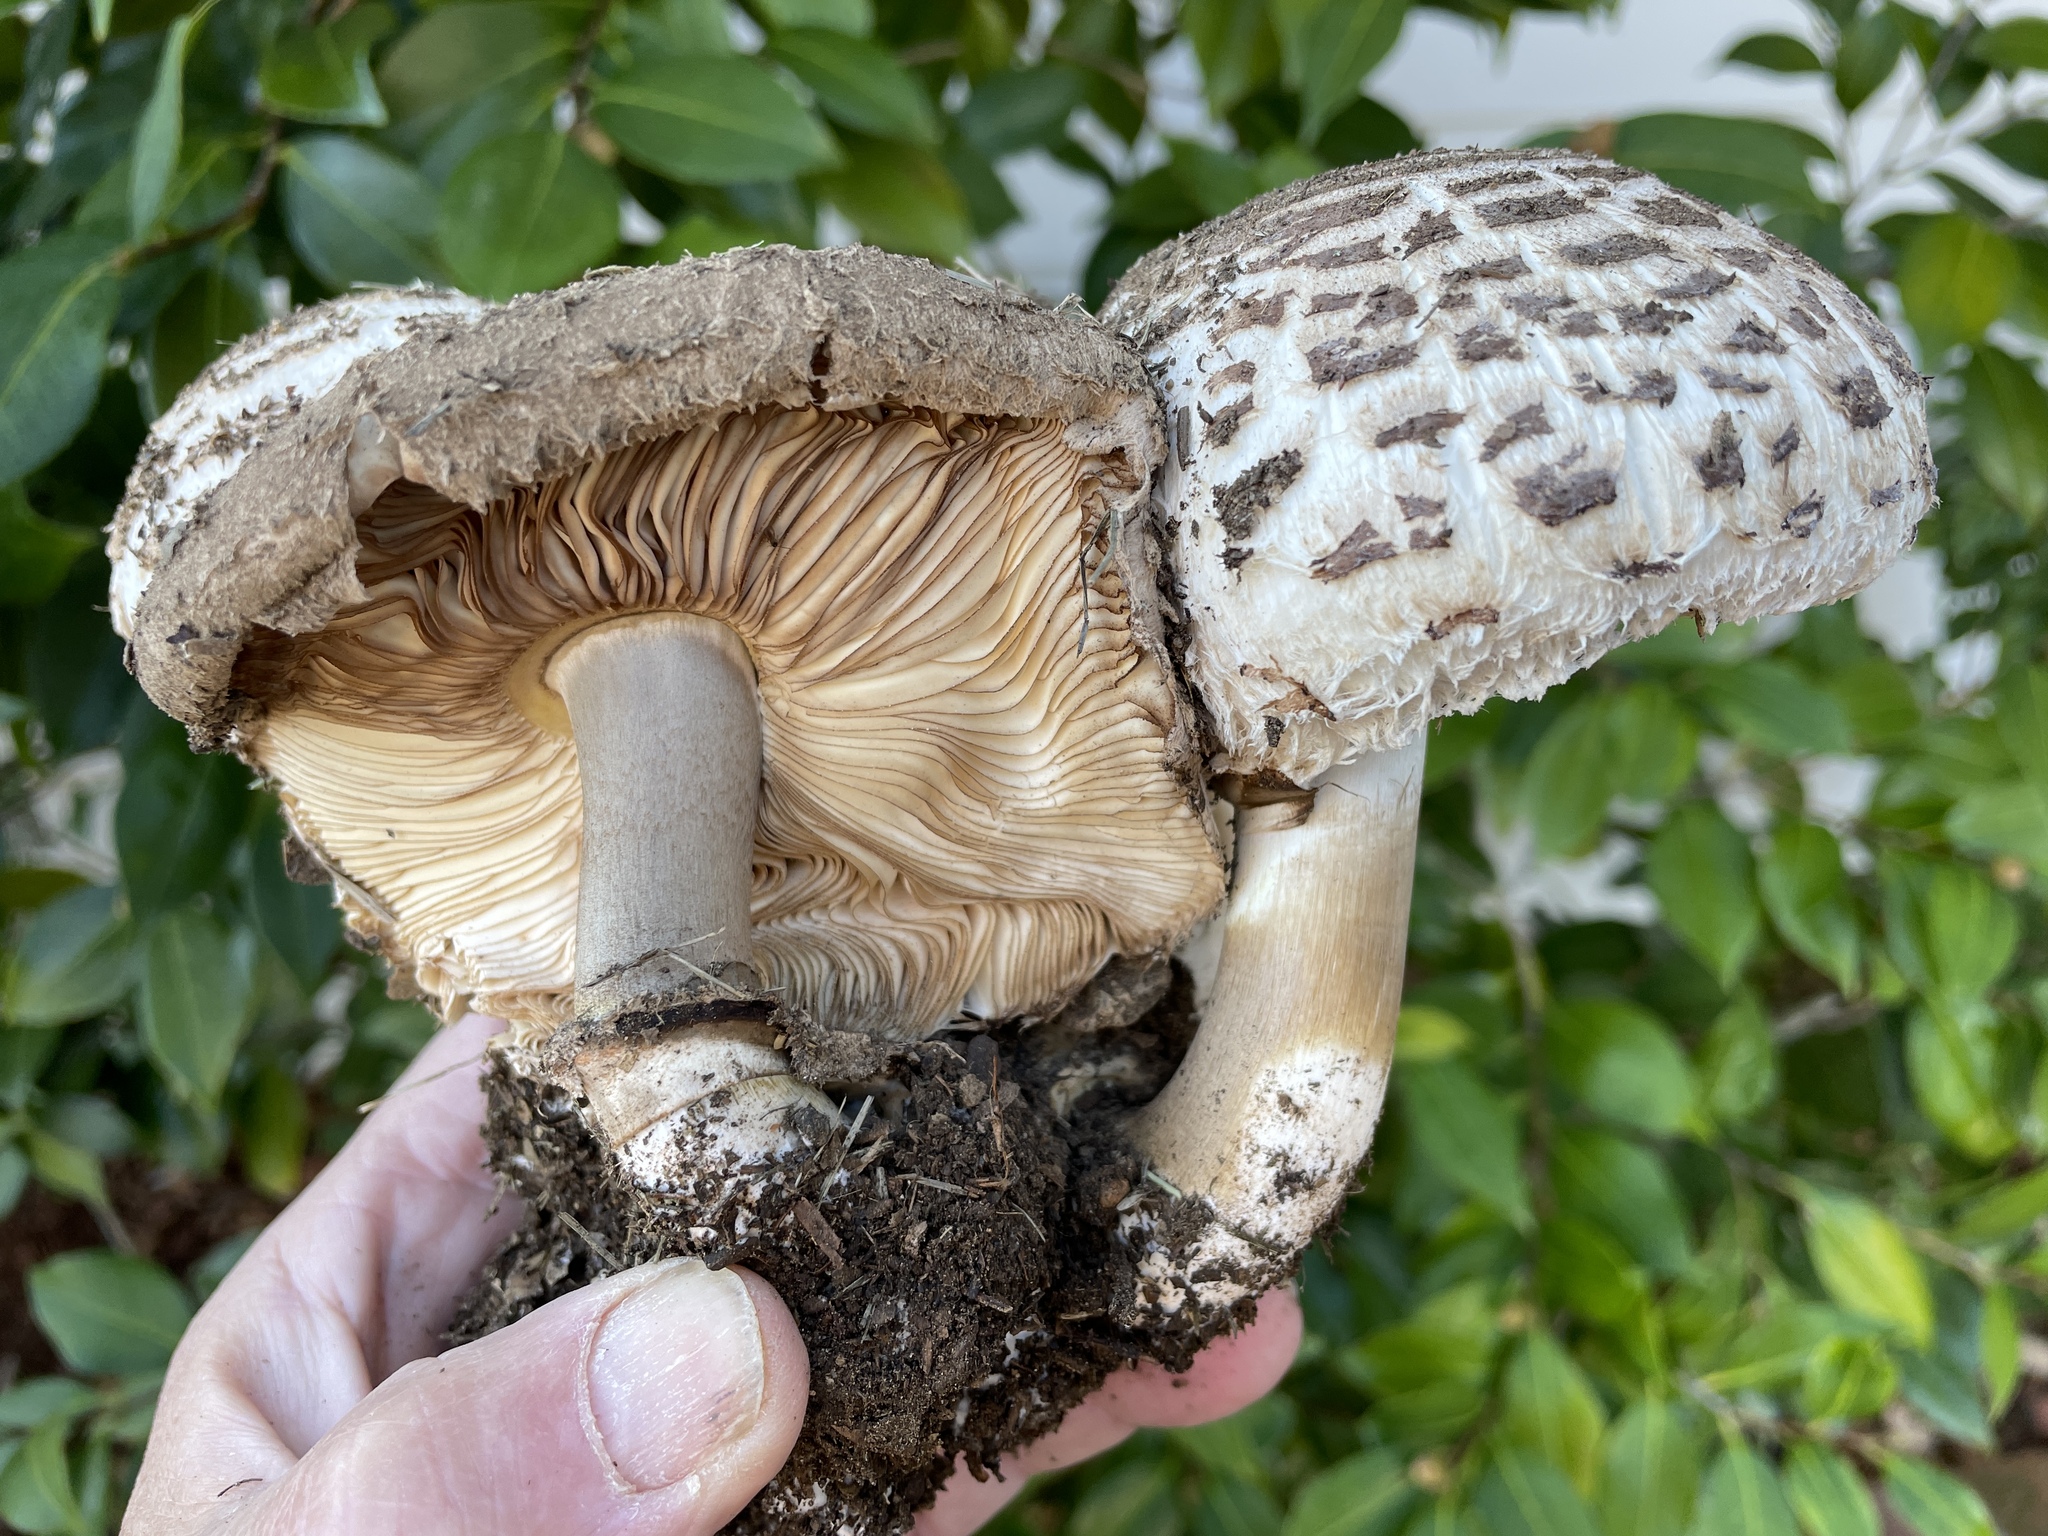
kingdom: Fungi
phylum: Basidiomycota
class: Agaricomycetes
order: Agaricales
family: Agaricaceae
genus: Chlorophyllum
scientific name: Chlorophyllum brunneum
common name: Brown parasol
